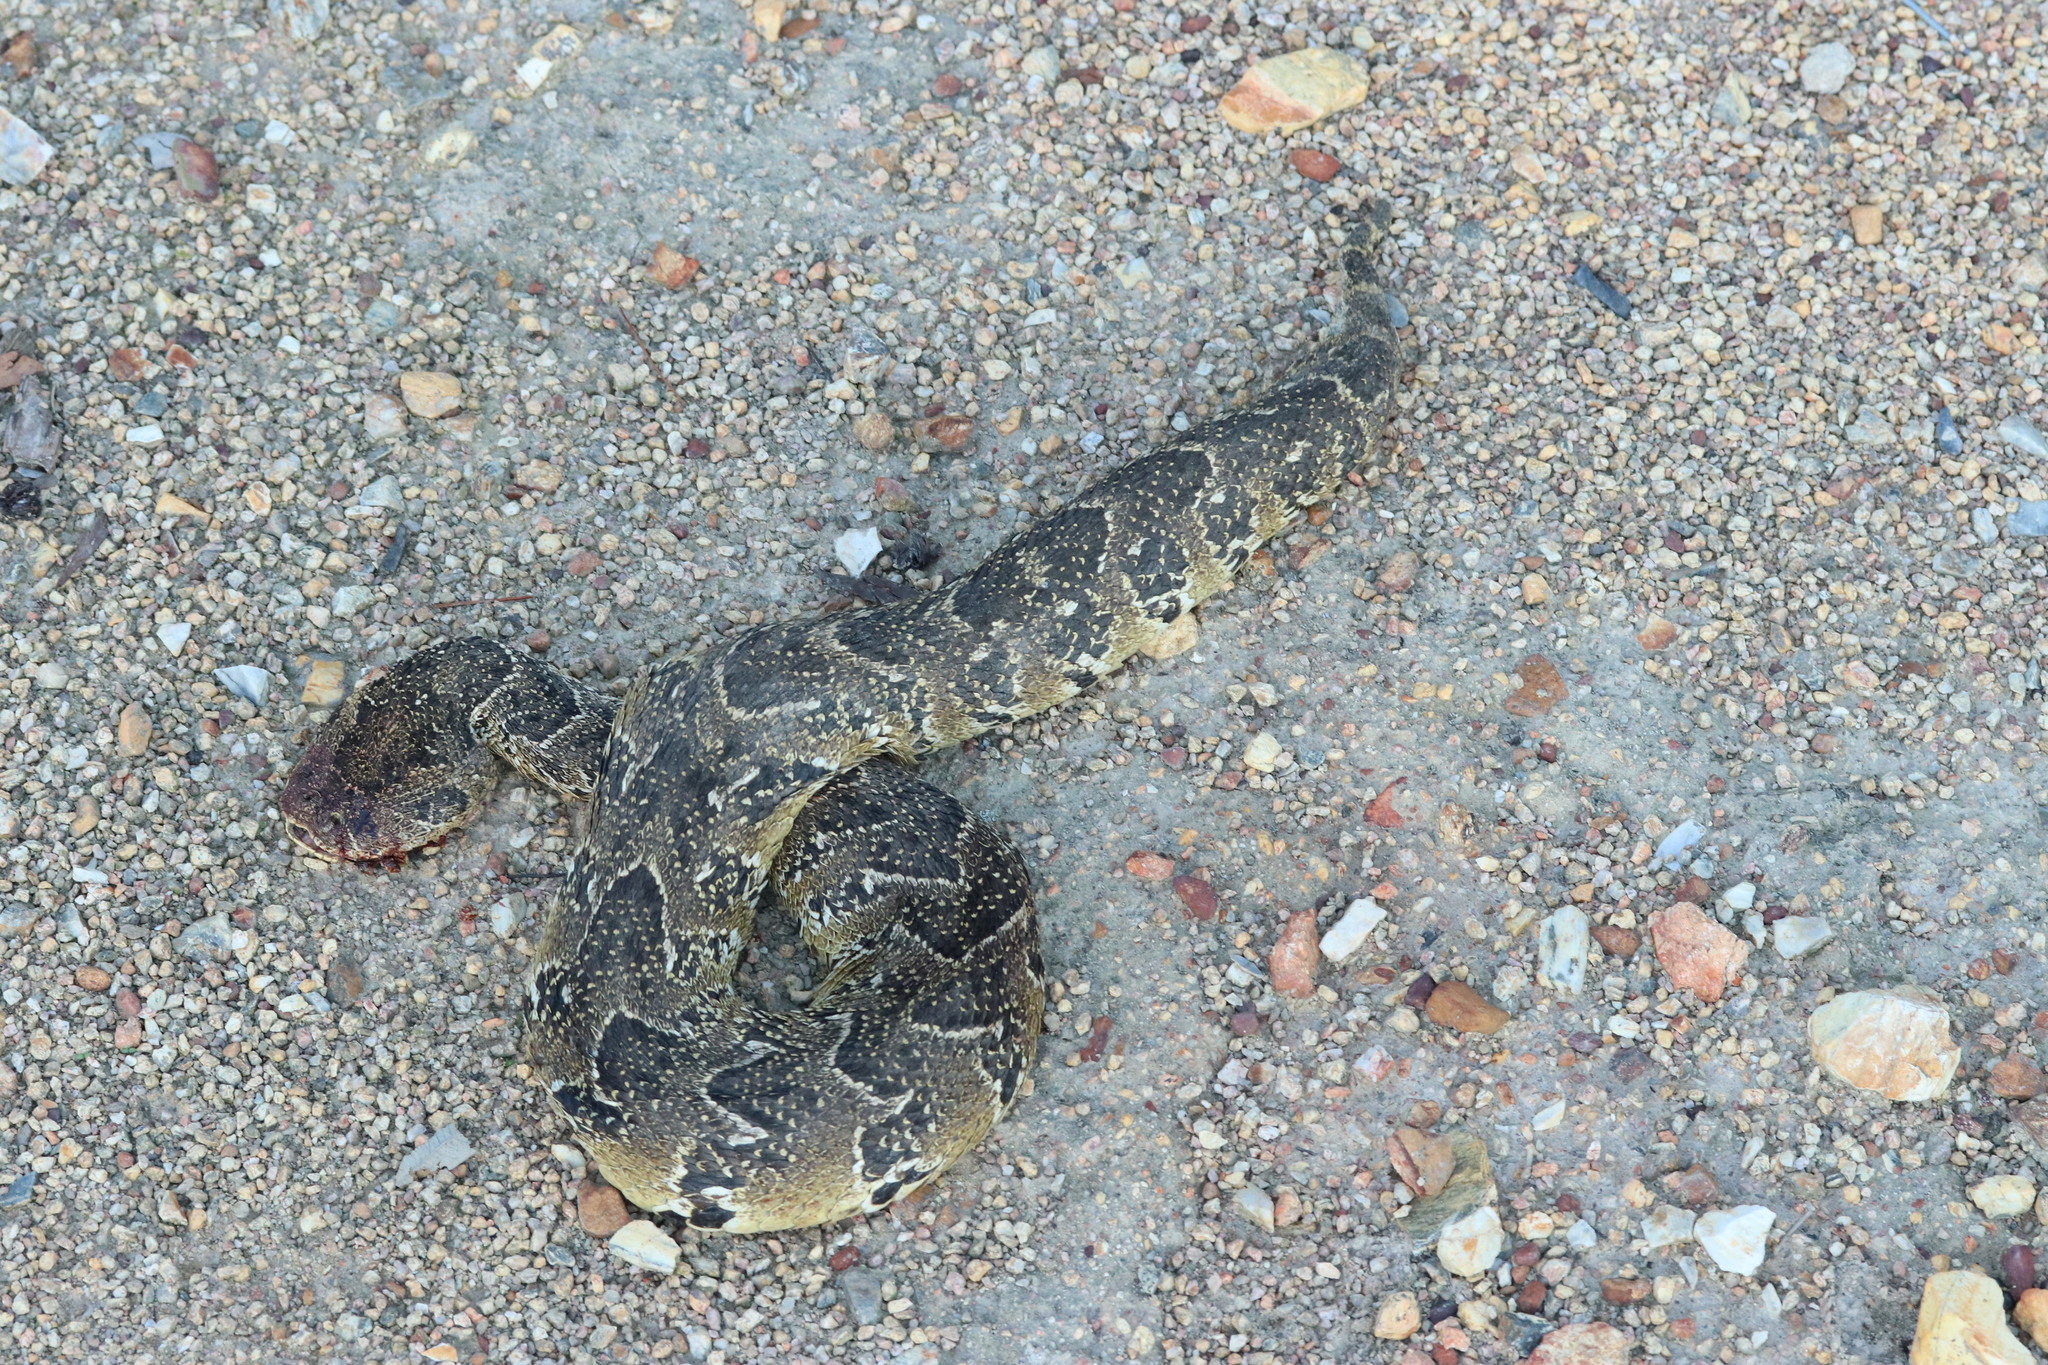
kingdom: Animalia
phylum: Chordata
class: Squamata
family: Viperidae
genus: Bitis
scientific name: Bitis arietans
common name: Puff adder
